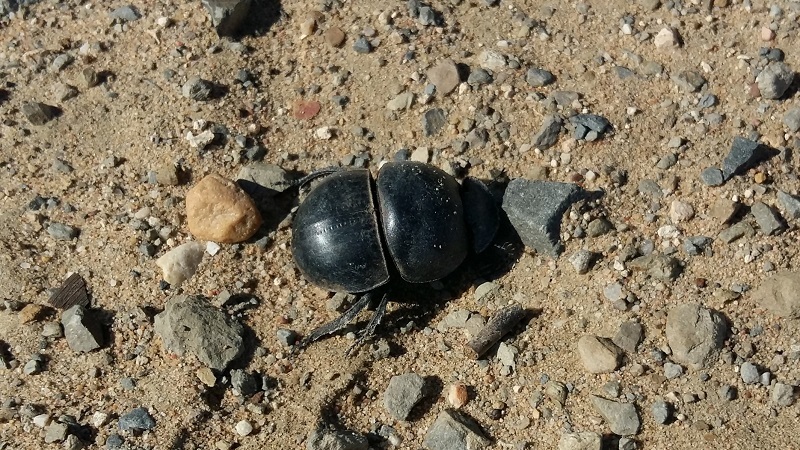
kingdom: Animalia
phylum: Arthropoda
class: Insecta
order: Coleoptera
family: Scarabaeidae
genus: Circellium
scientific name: Circellium bacchus
